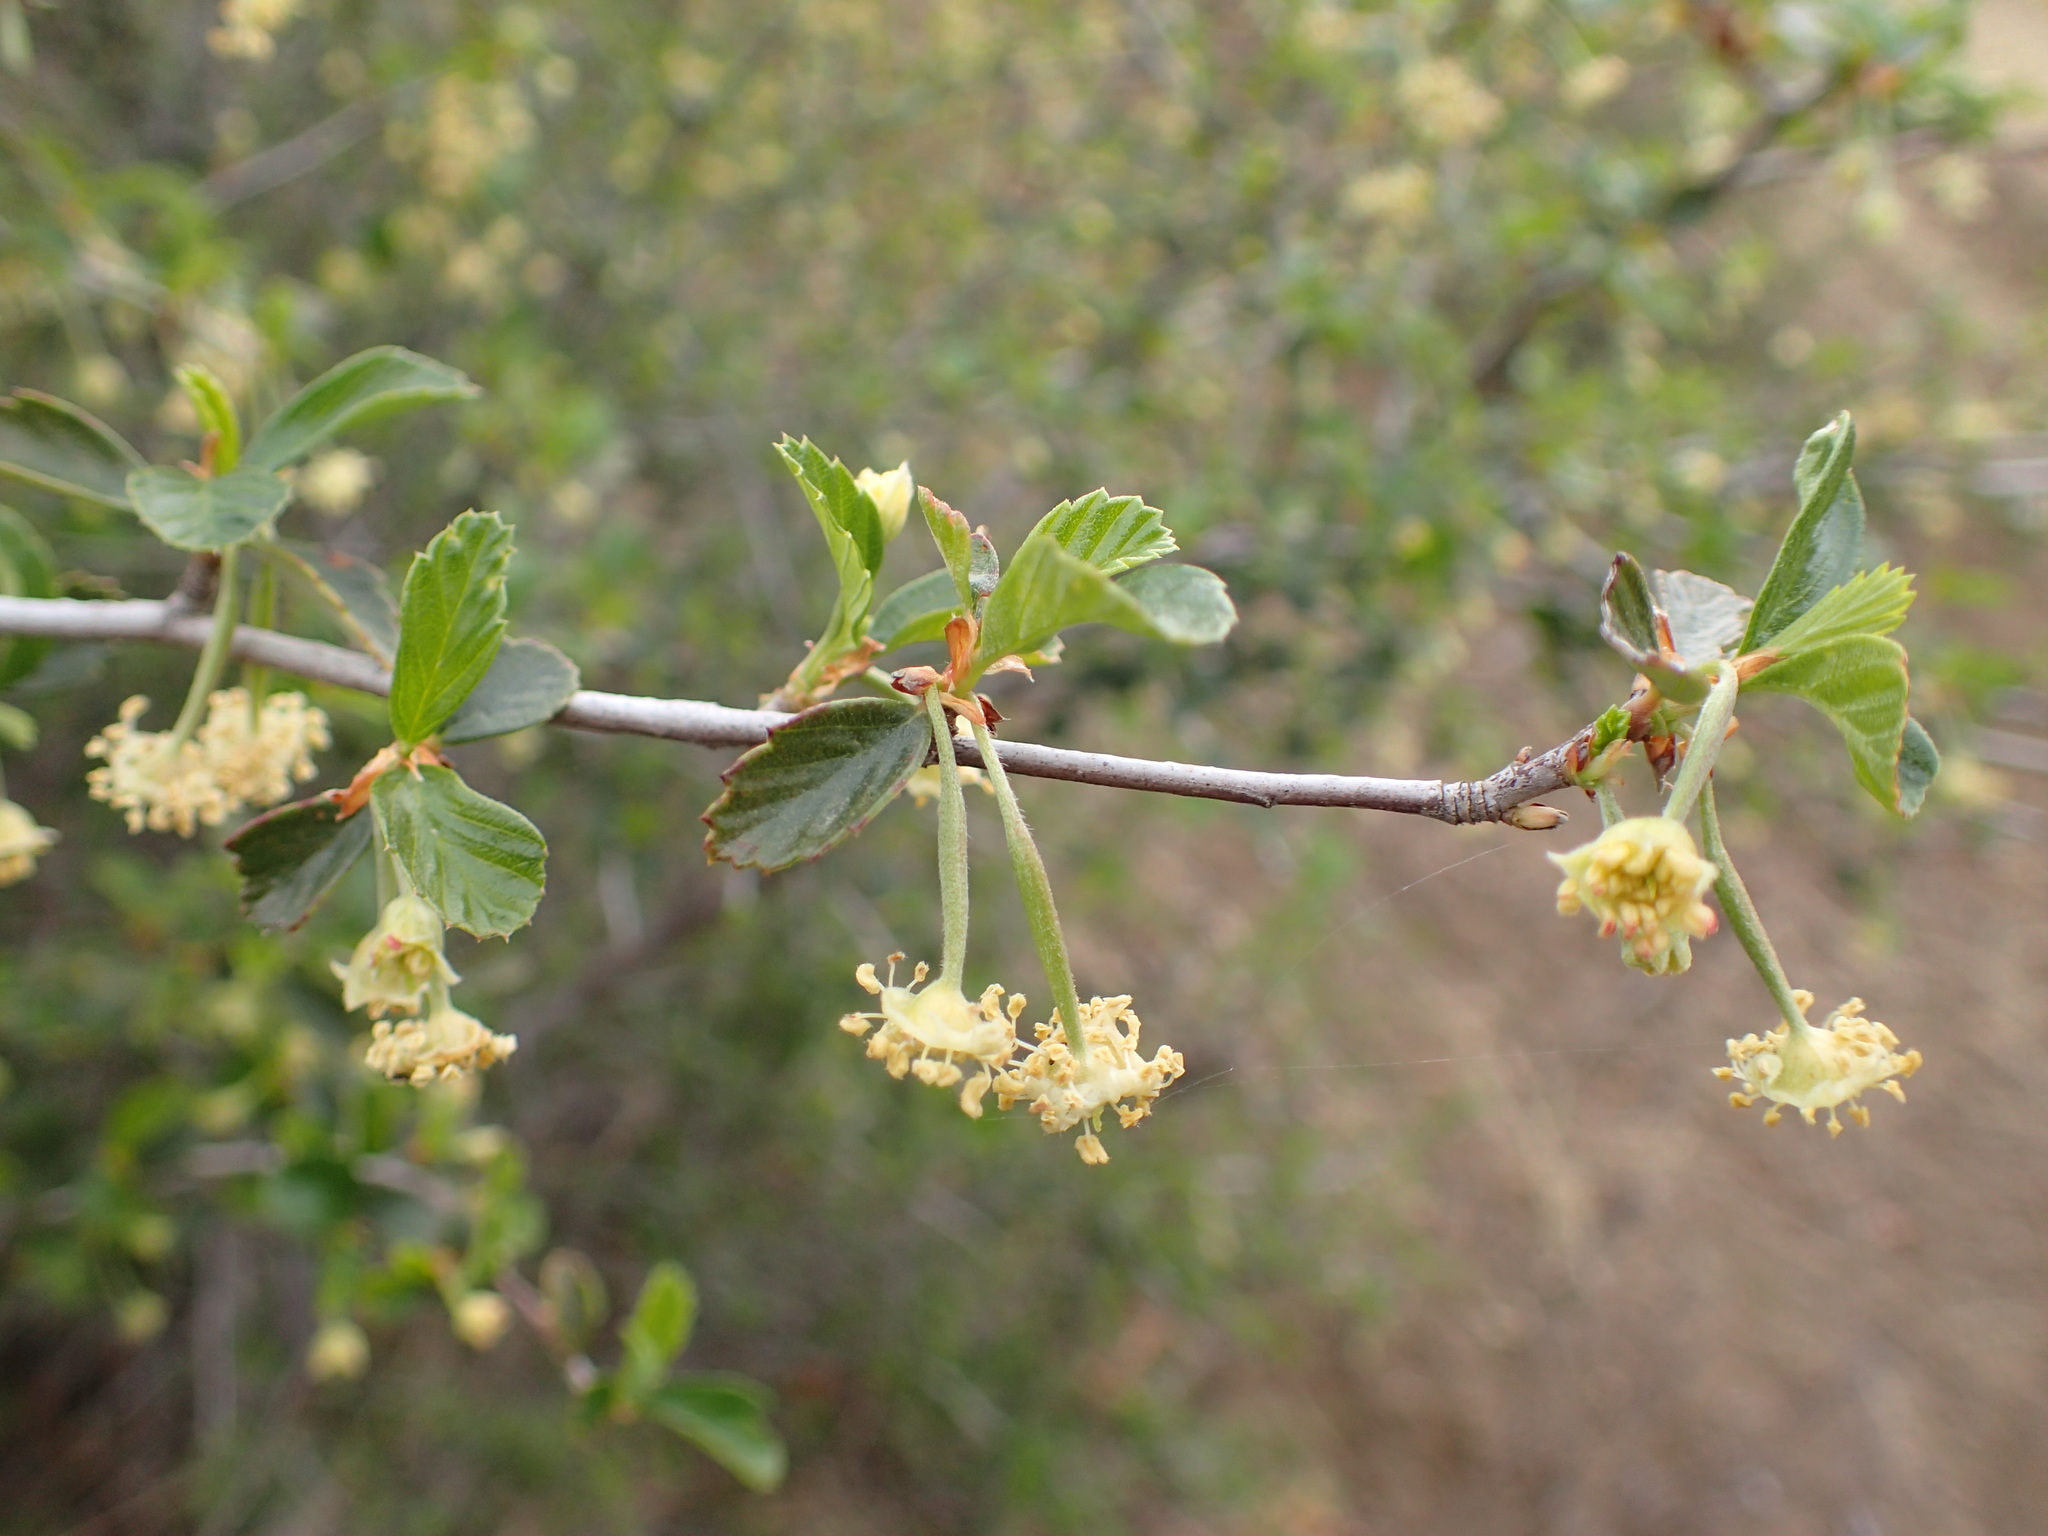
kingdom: Plantae
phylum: Tracheophyta
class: Magnoliopsida
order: Rosales
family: Rosaceae
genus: Cercocarpus
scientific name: Cercocarpus betuloides
